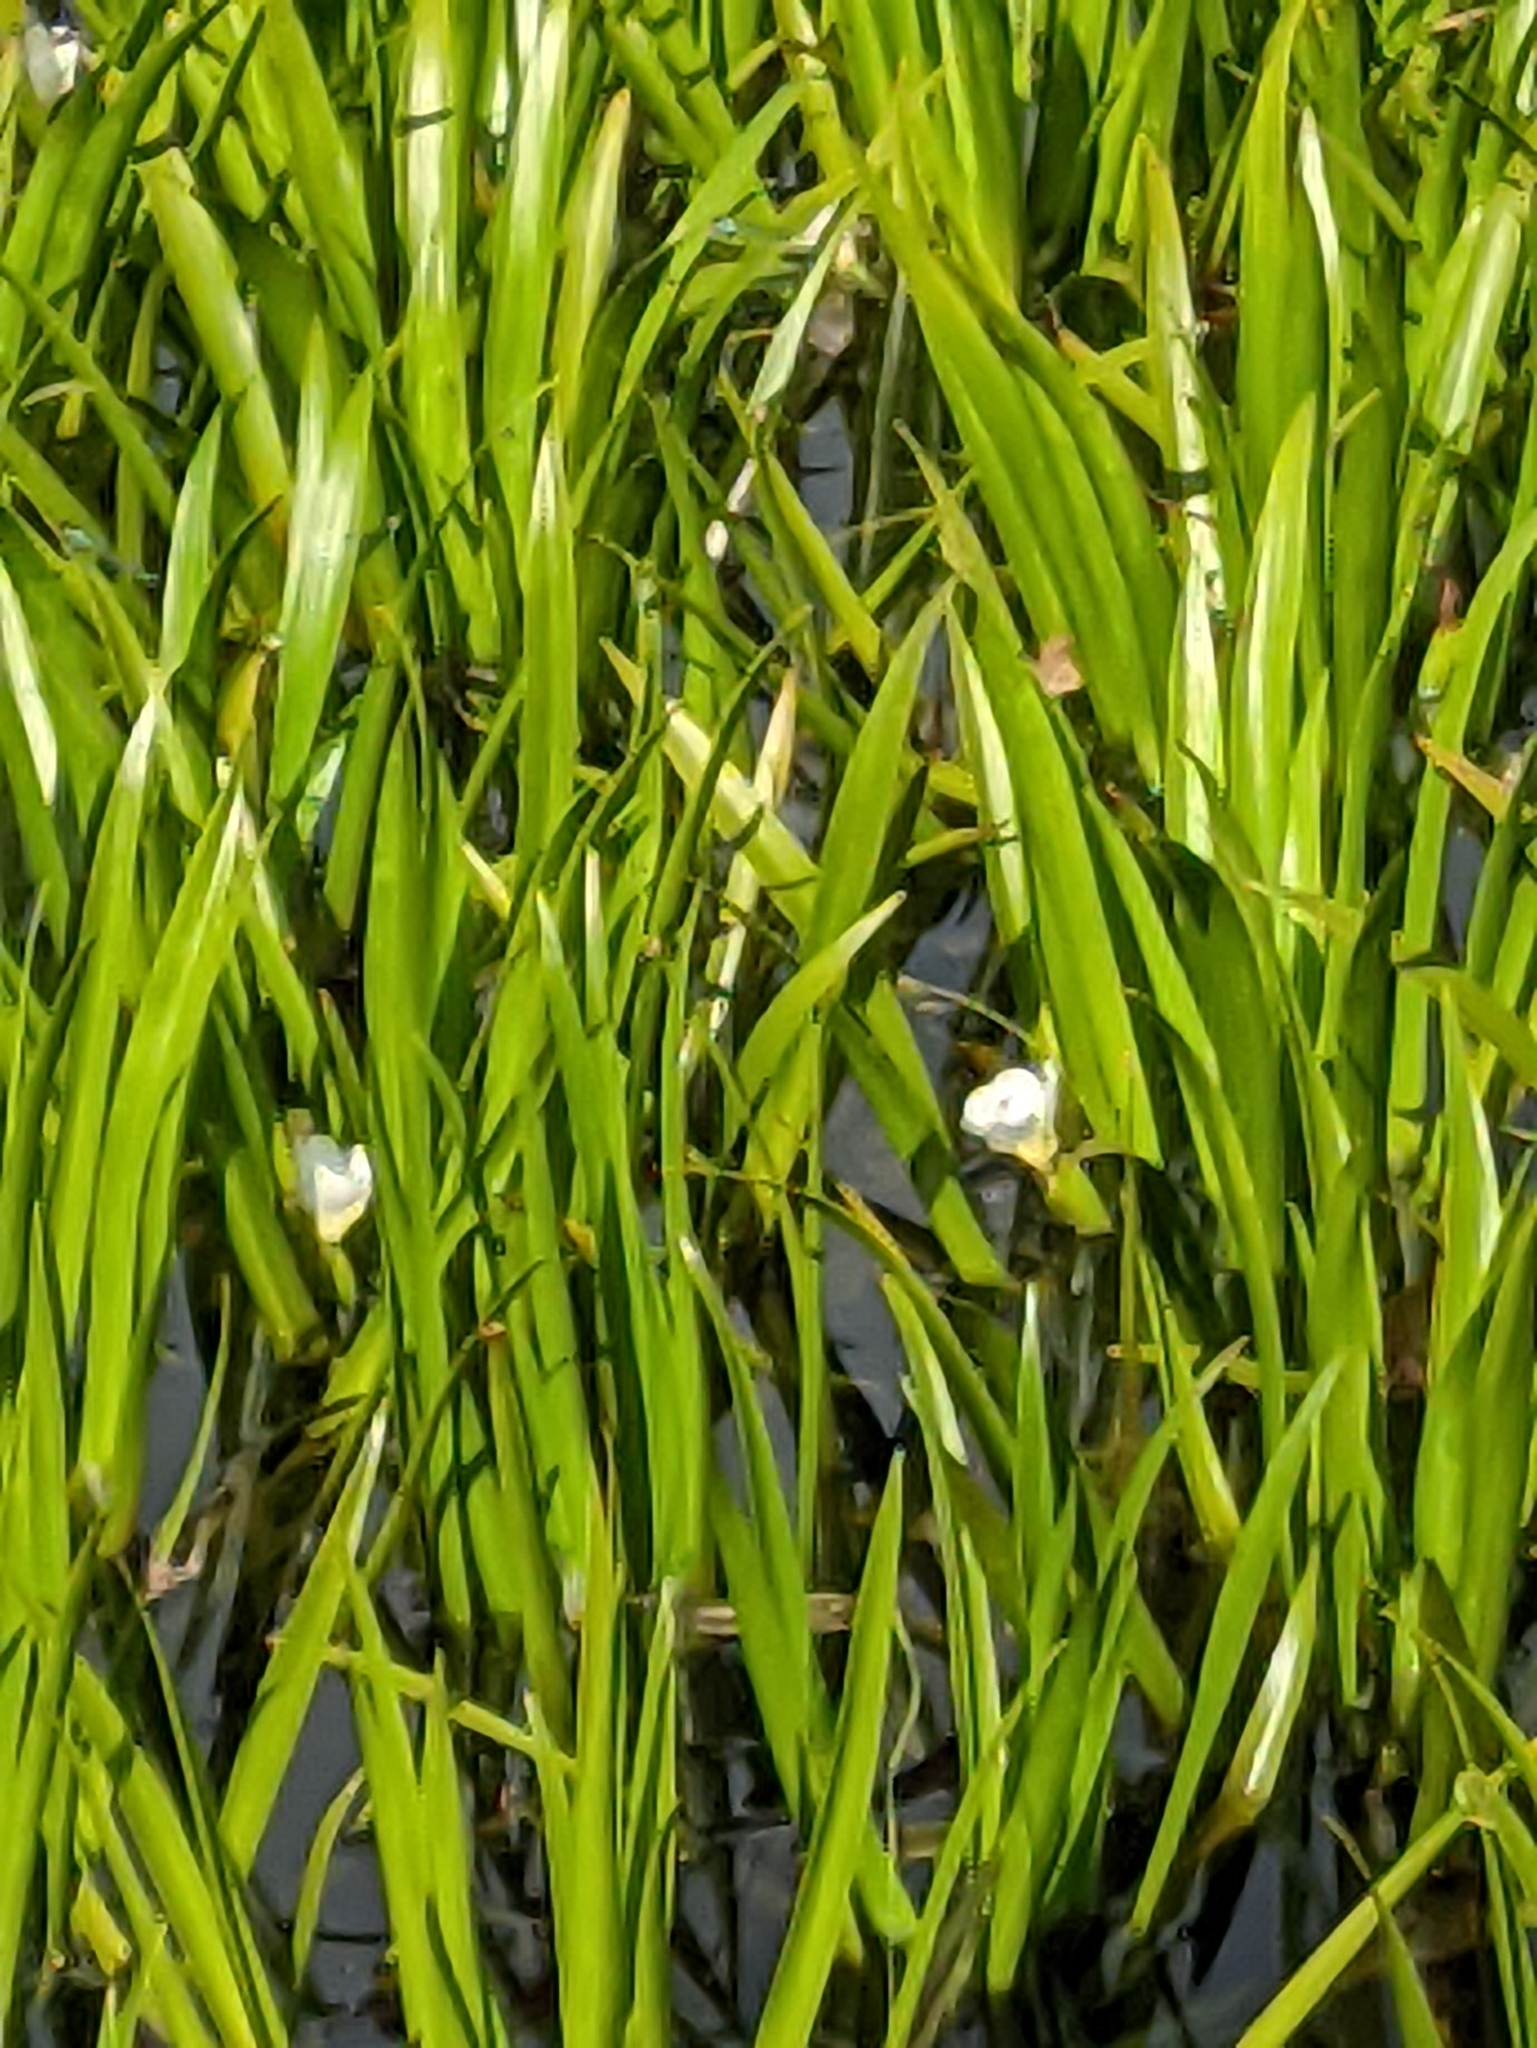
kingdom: Plantae
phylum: Tracheophyta
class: Liliopsida
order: Alismatales
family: Hydrocharitaceae
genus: Stratiotes
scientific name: Stratiotes aloides
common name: Water-soldier
